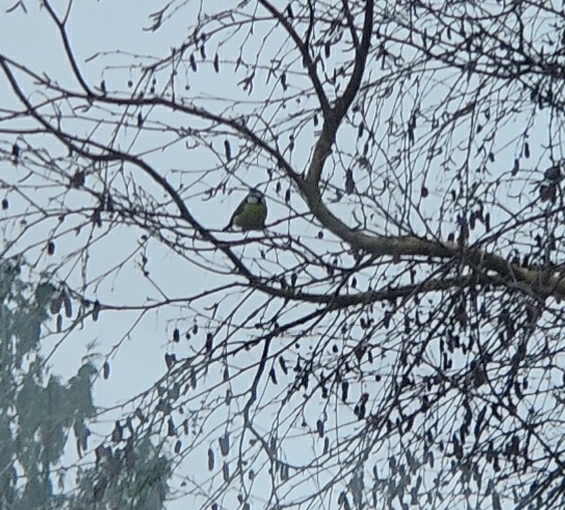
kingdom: Animalia
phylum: Chordata
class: Aves
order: Passeriformes
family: Paridae
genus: Cyanistes
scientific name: Cyanistes caeruleus
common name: Eurasian blue tit
